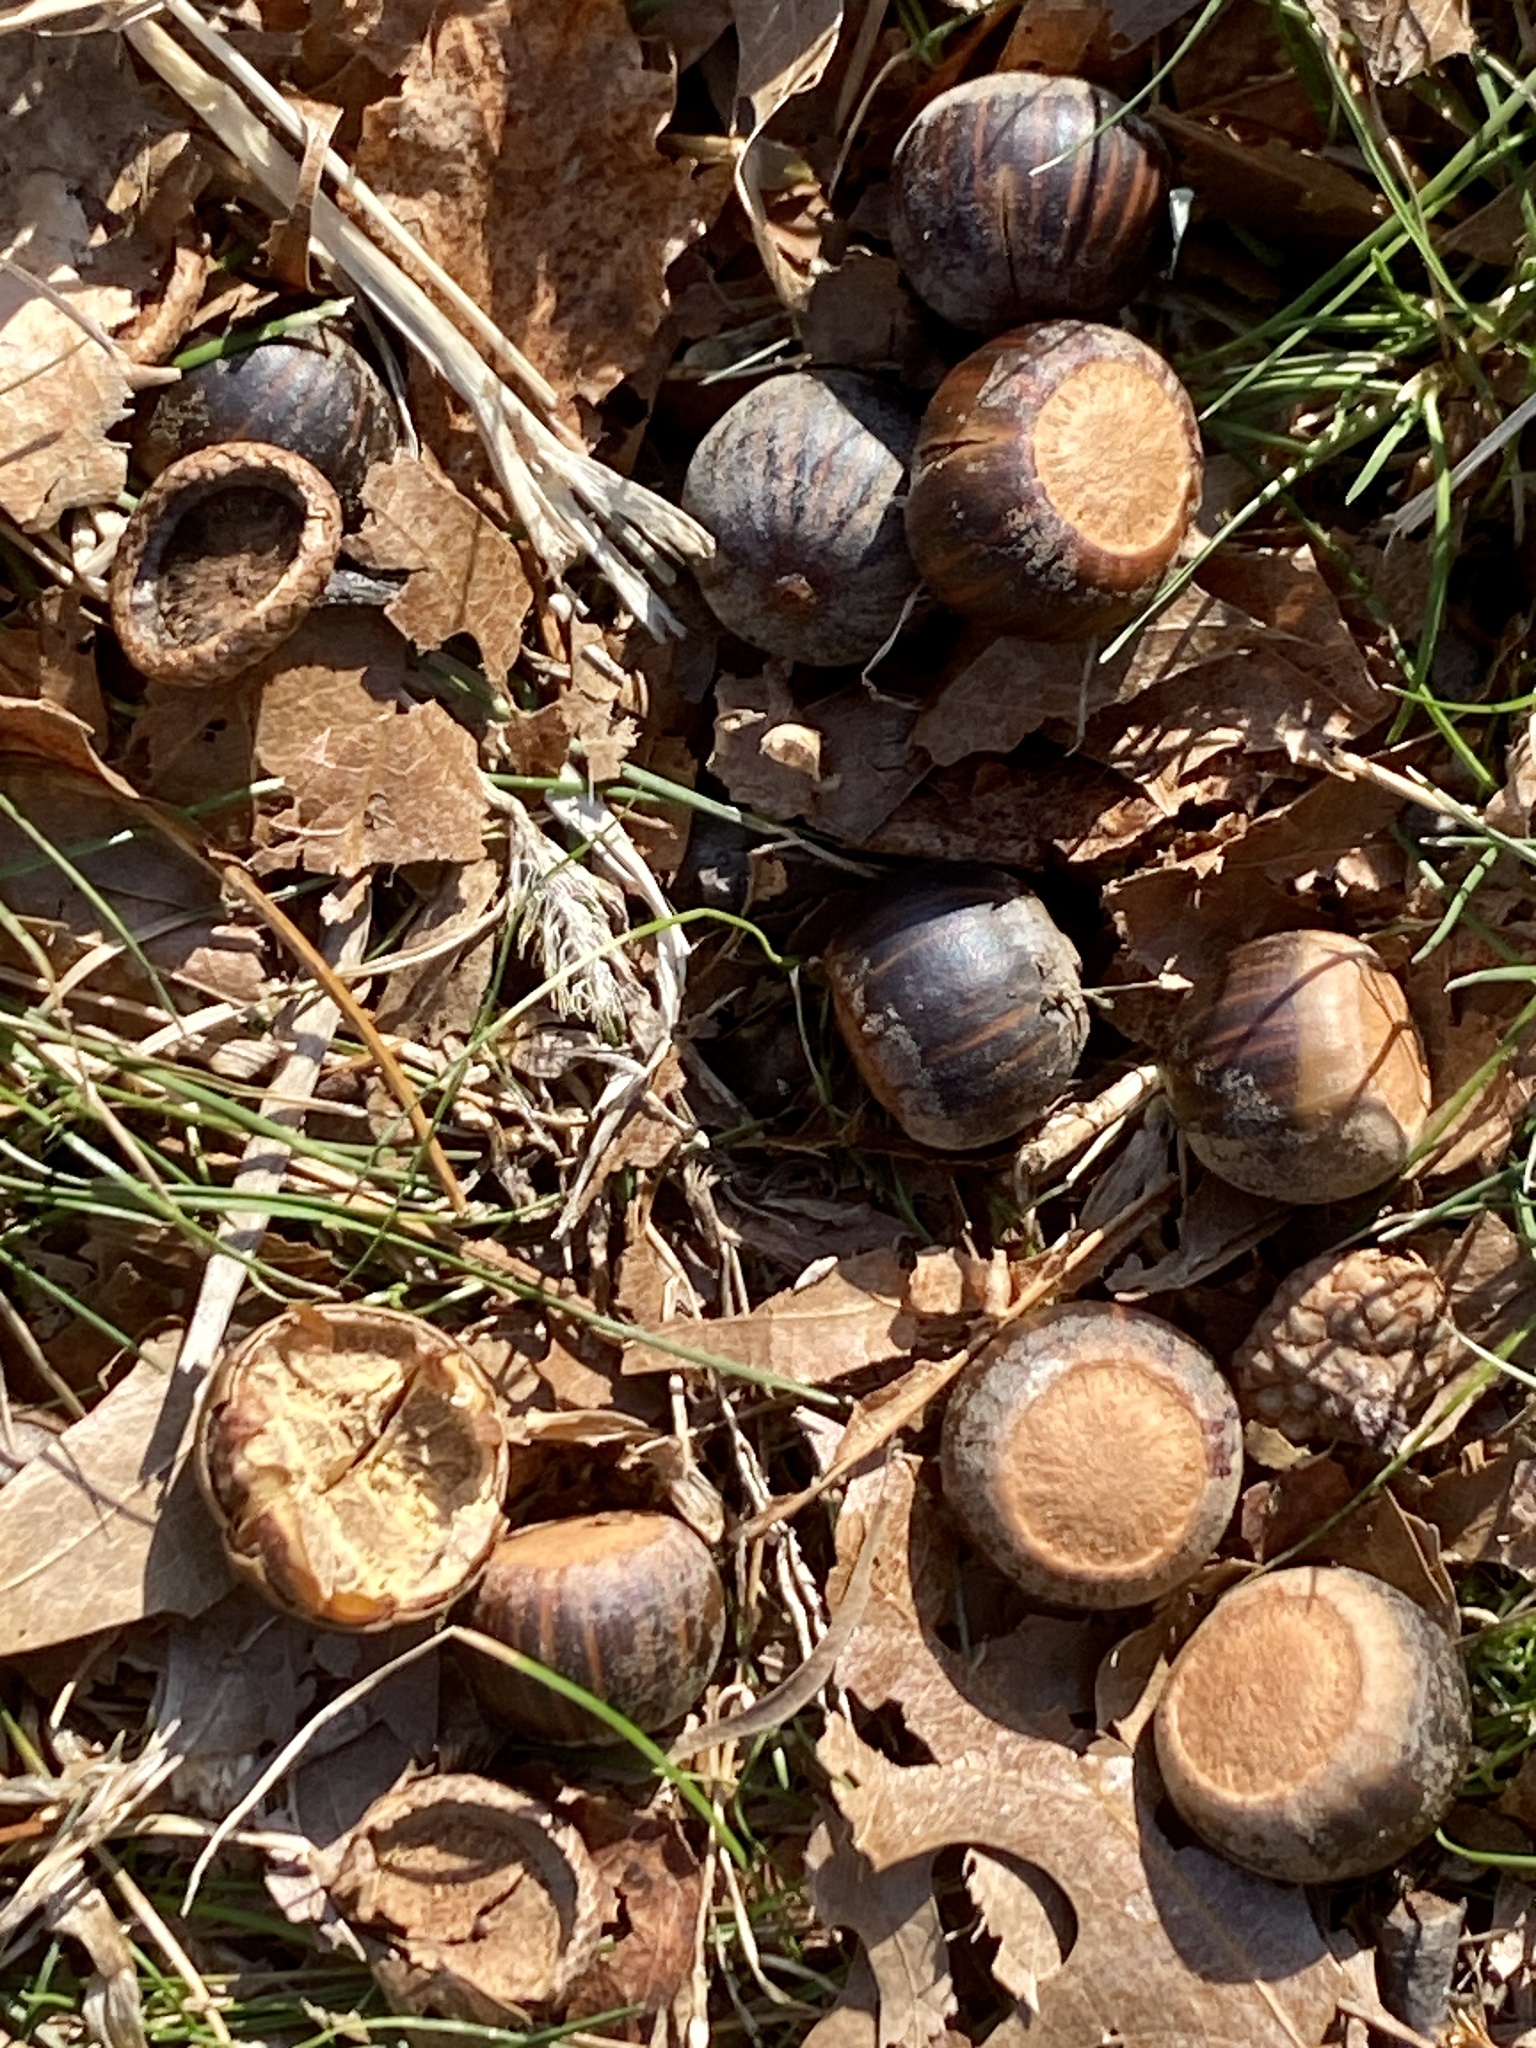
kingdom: Plantae
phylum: Tracheophyta
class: Magnoliopsida
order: Fagales
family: Fagaceae
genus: Quercus
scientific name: Quercus palustris
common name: Pin oak
